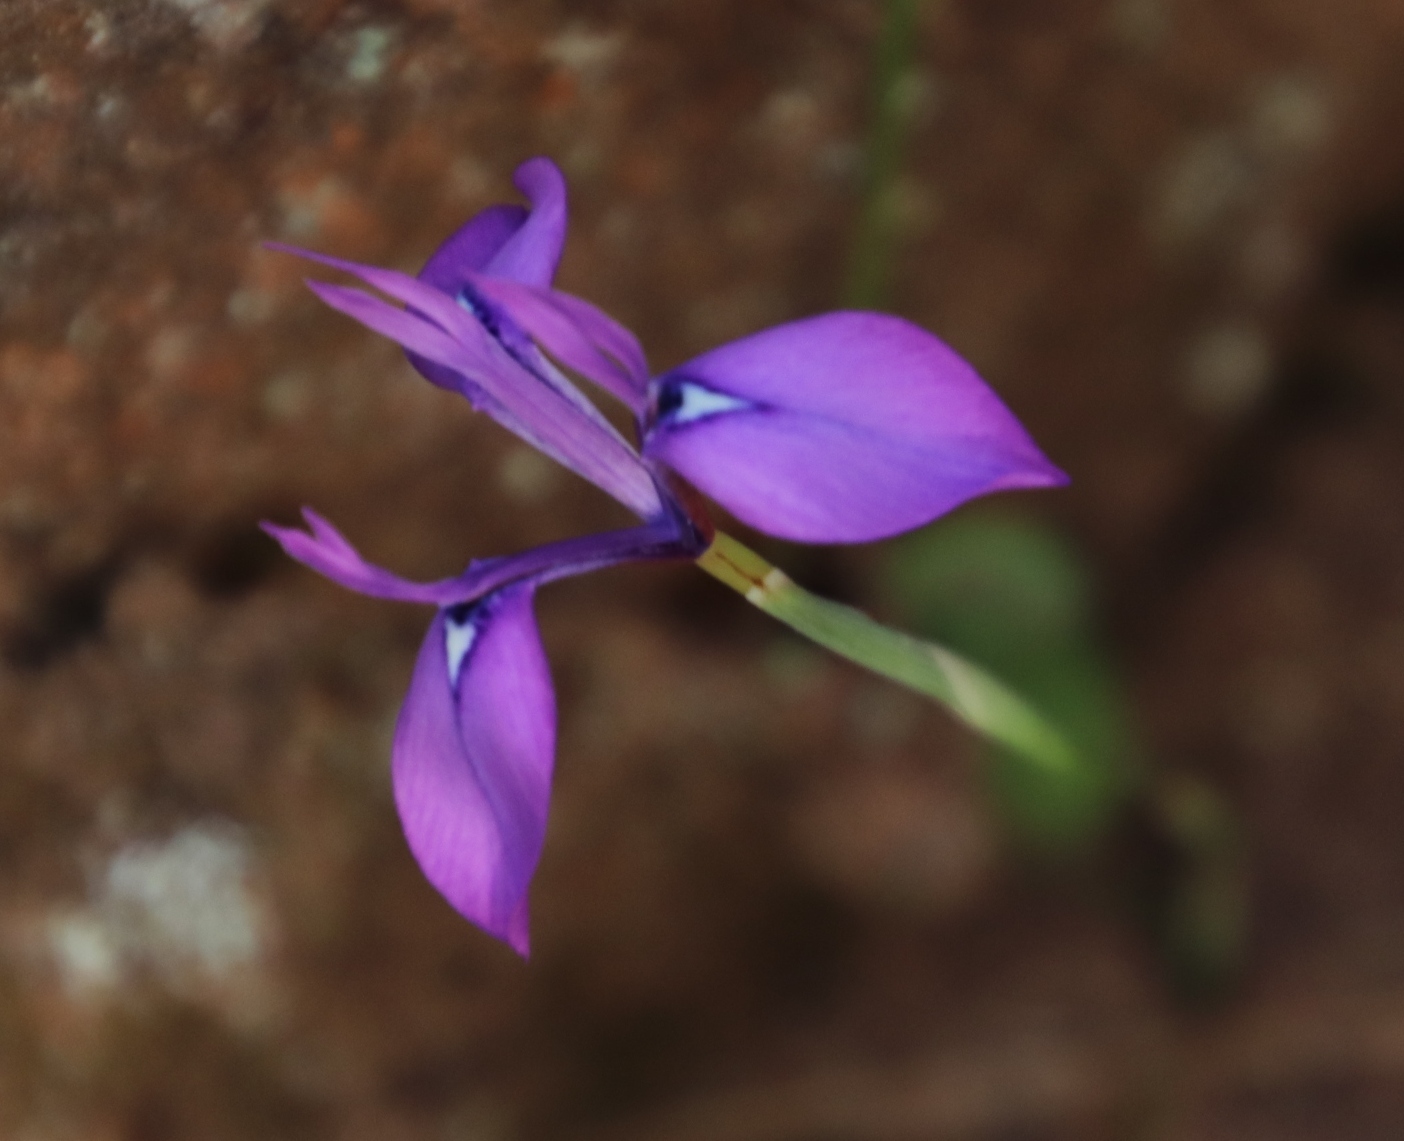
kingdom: Plantae
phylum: Tracheophyta
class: Liliopsida
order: Asparagales
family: Iridaceae
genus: Moraea
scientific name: Moraea tripetala
